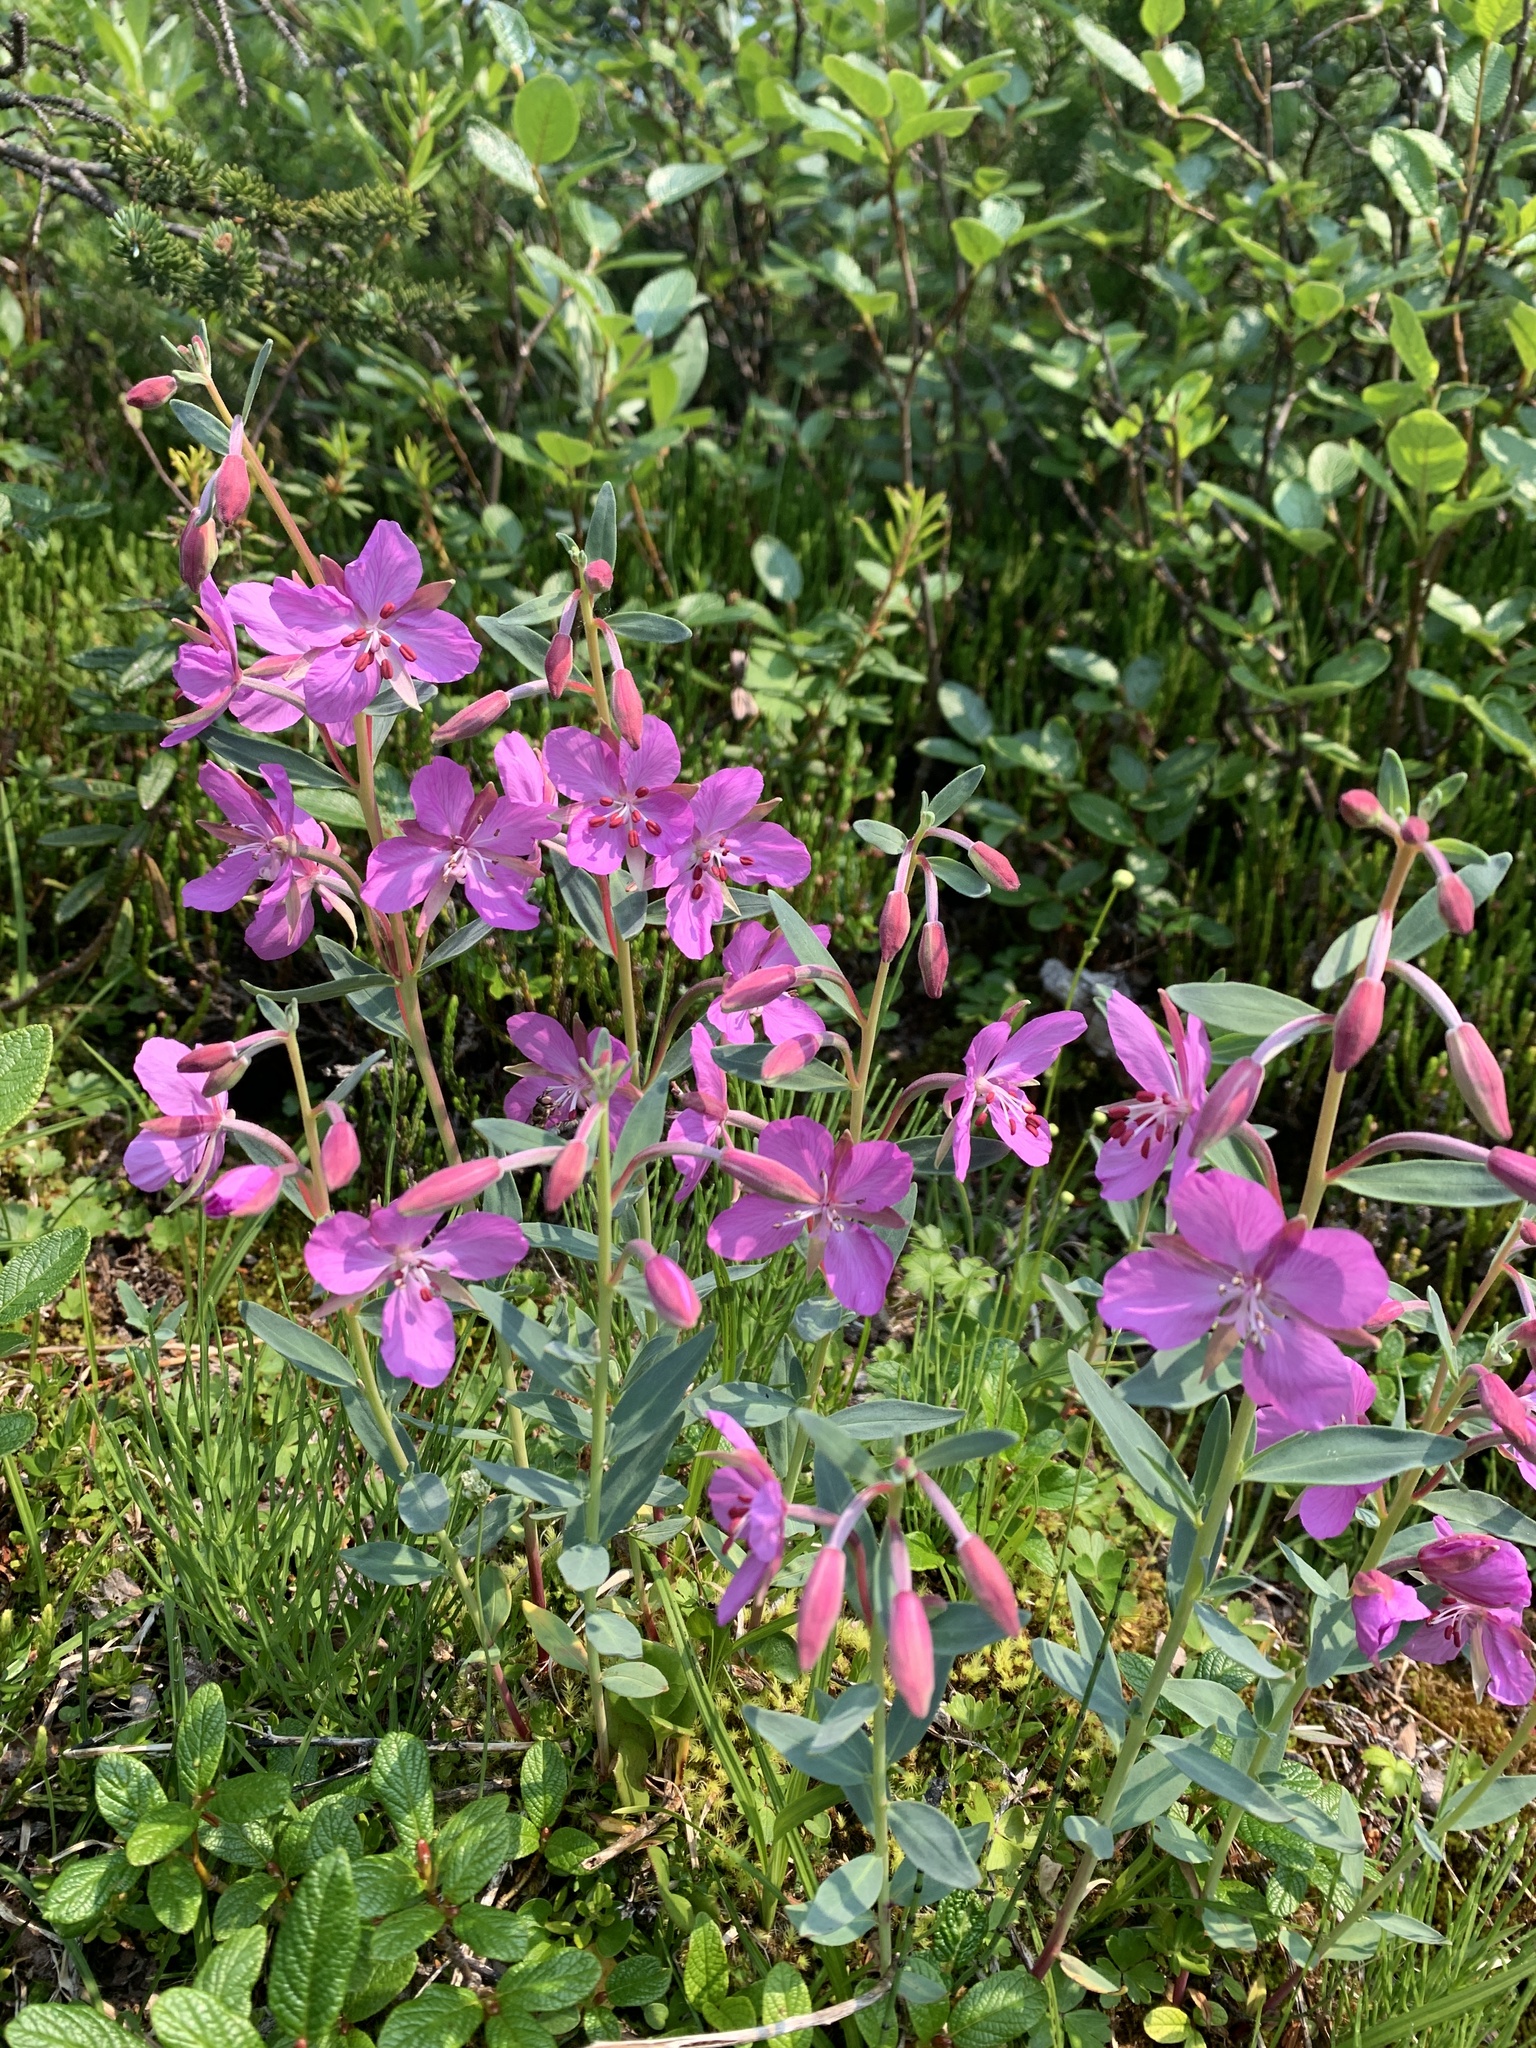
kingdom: Plantae
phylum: Tracheophyta
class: Magnoliopsida
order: Myrtales
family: Onagraceae
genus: Chamaenerion
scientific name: Chamaenerion latifolium
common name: Dwarf fireweed
